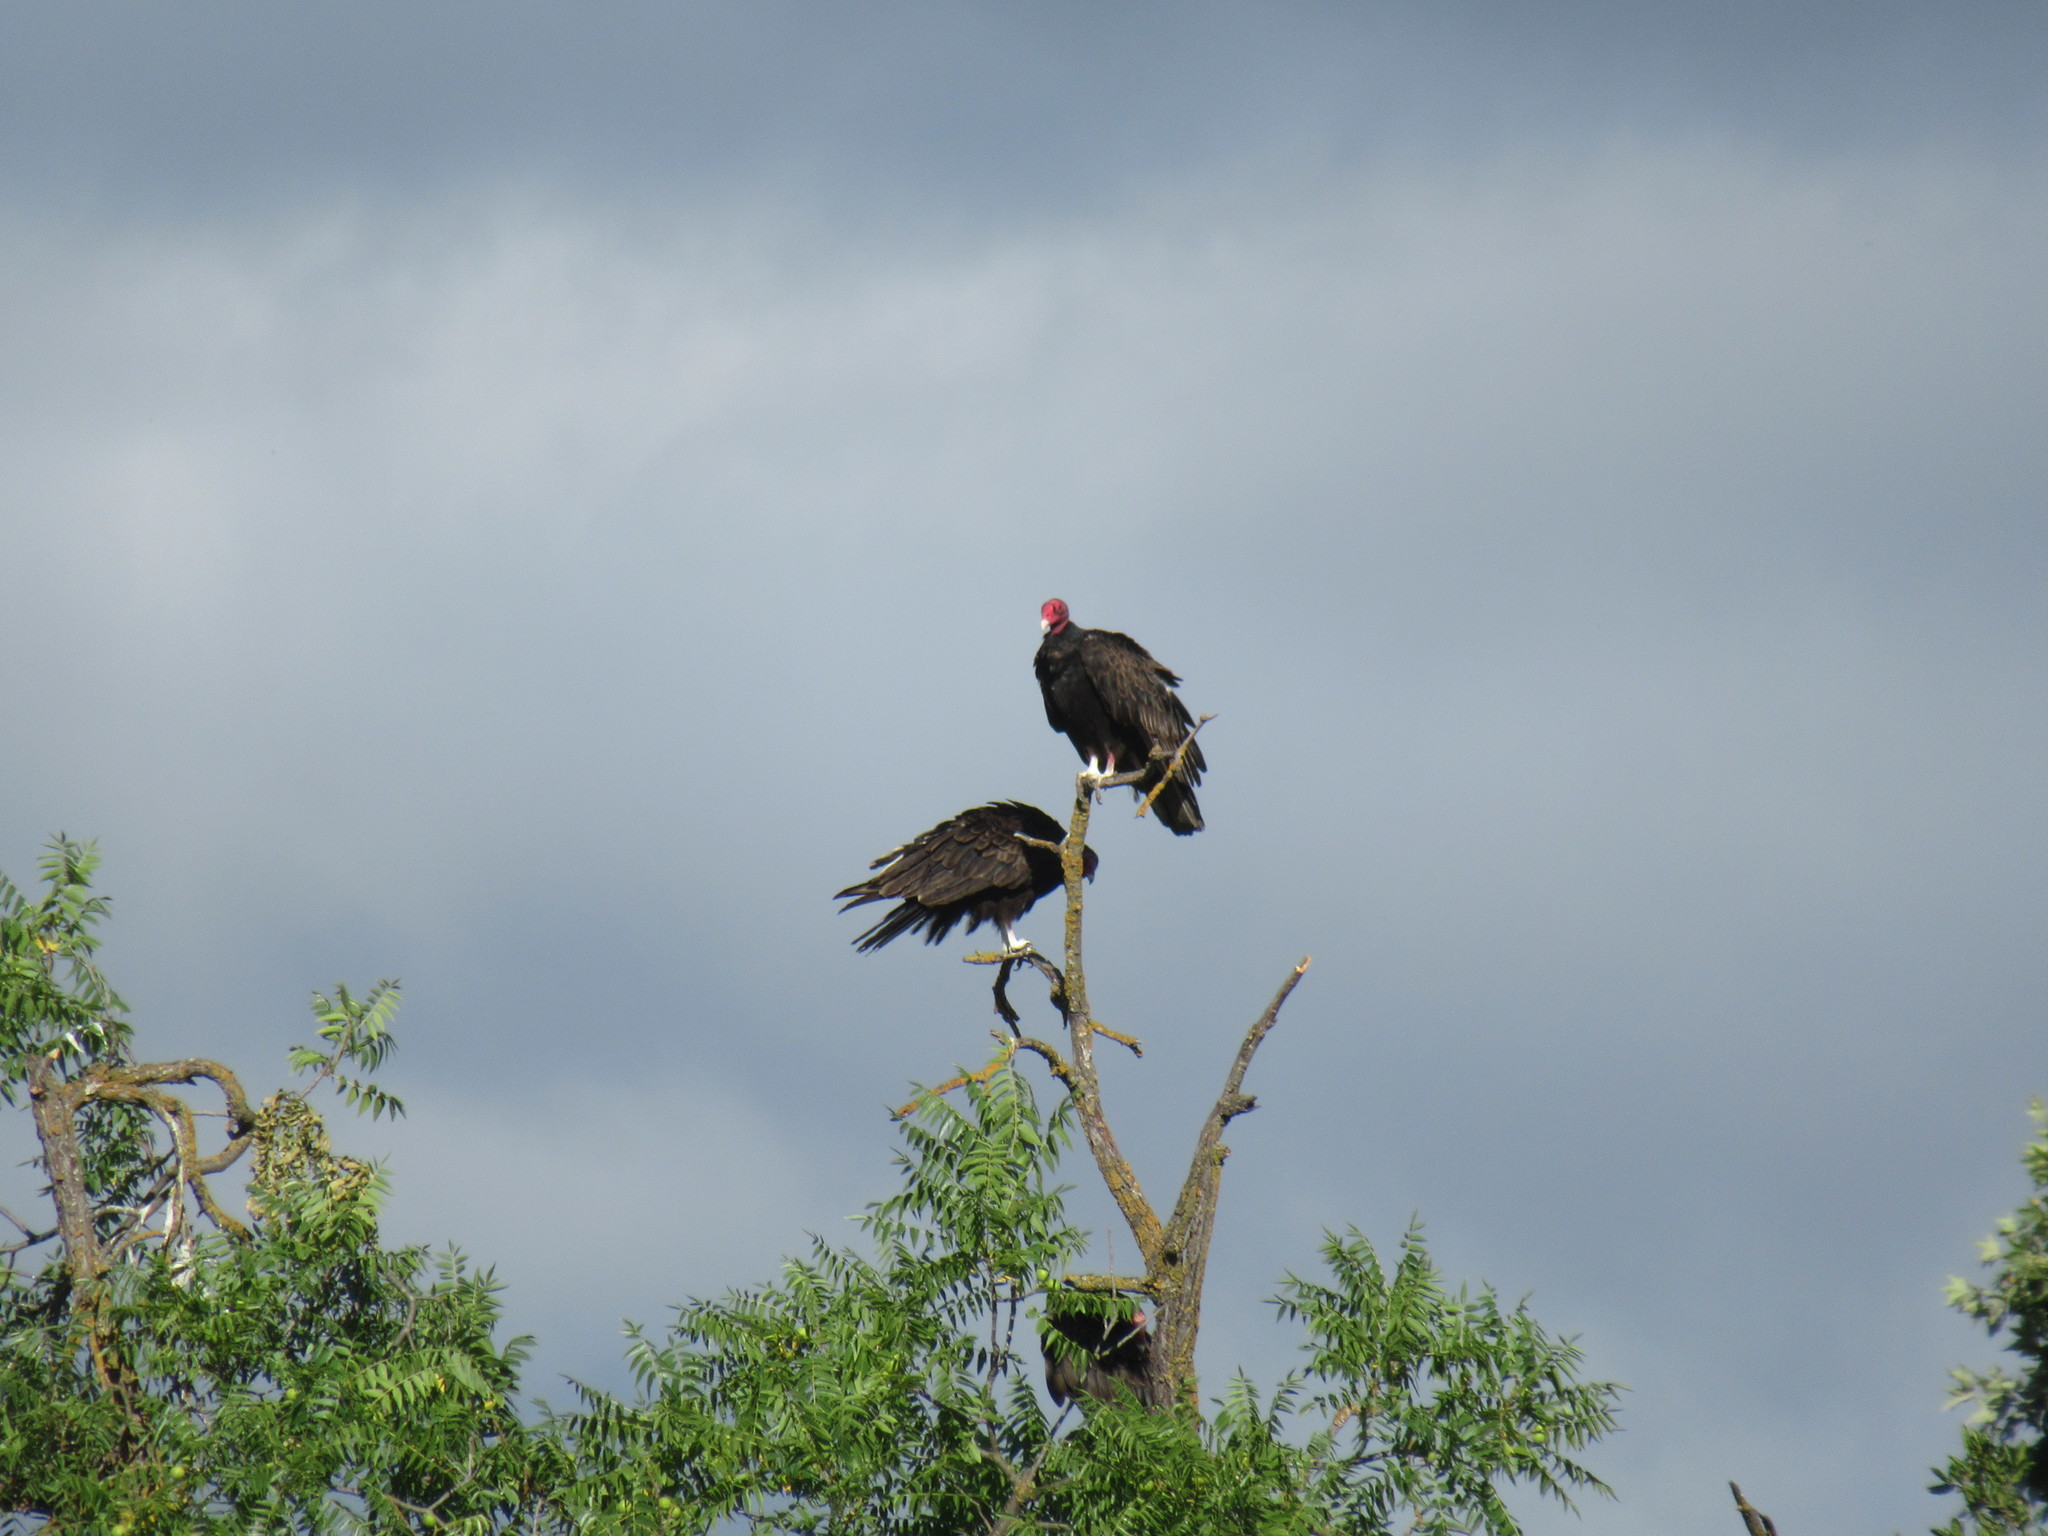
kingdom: Animalia
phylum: Chordata
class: Aves
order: Accipitriformes
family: Cathartidae
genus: Cathartes
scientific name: Cathartes aura
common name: Turkey vulture
